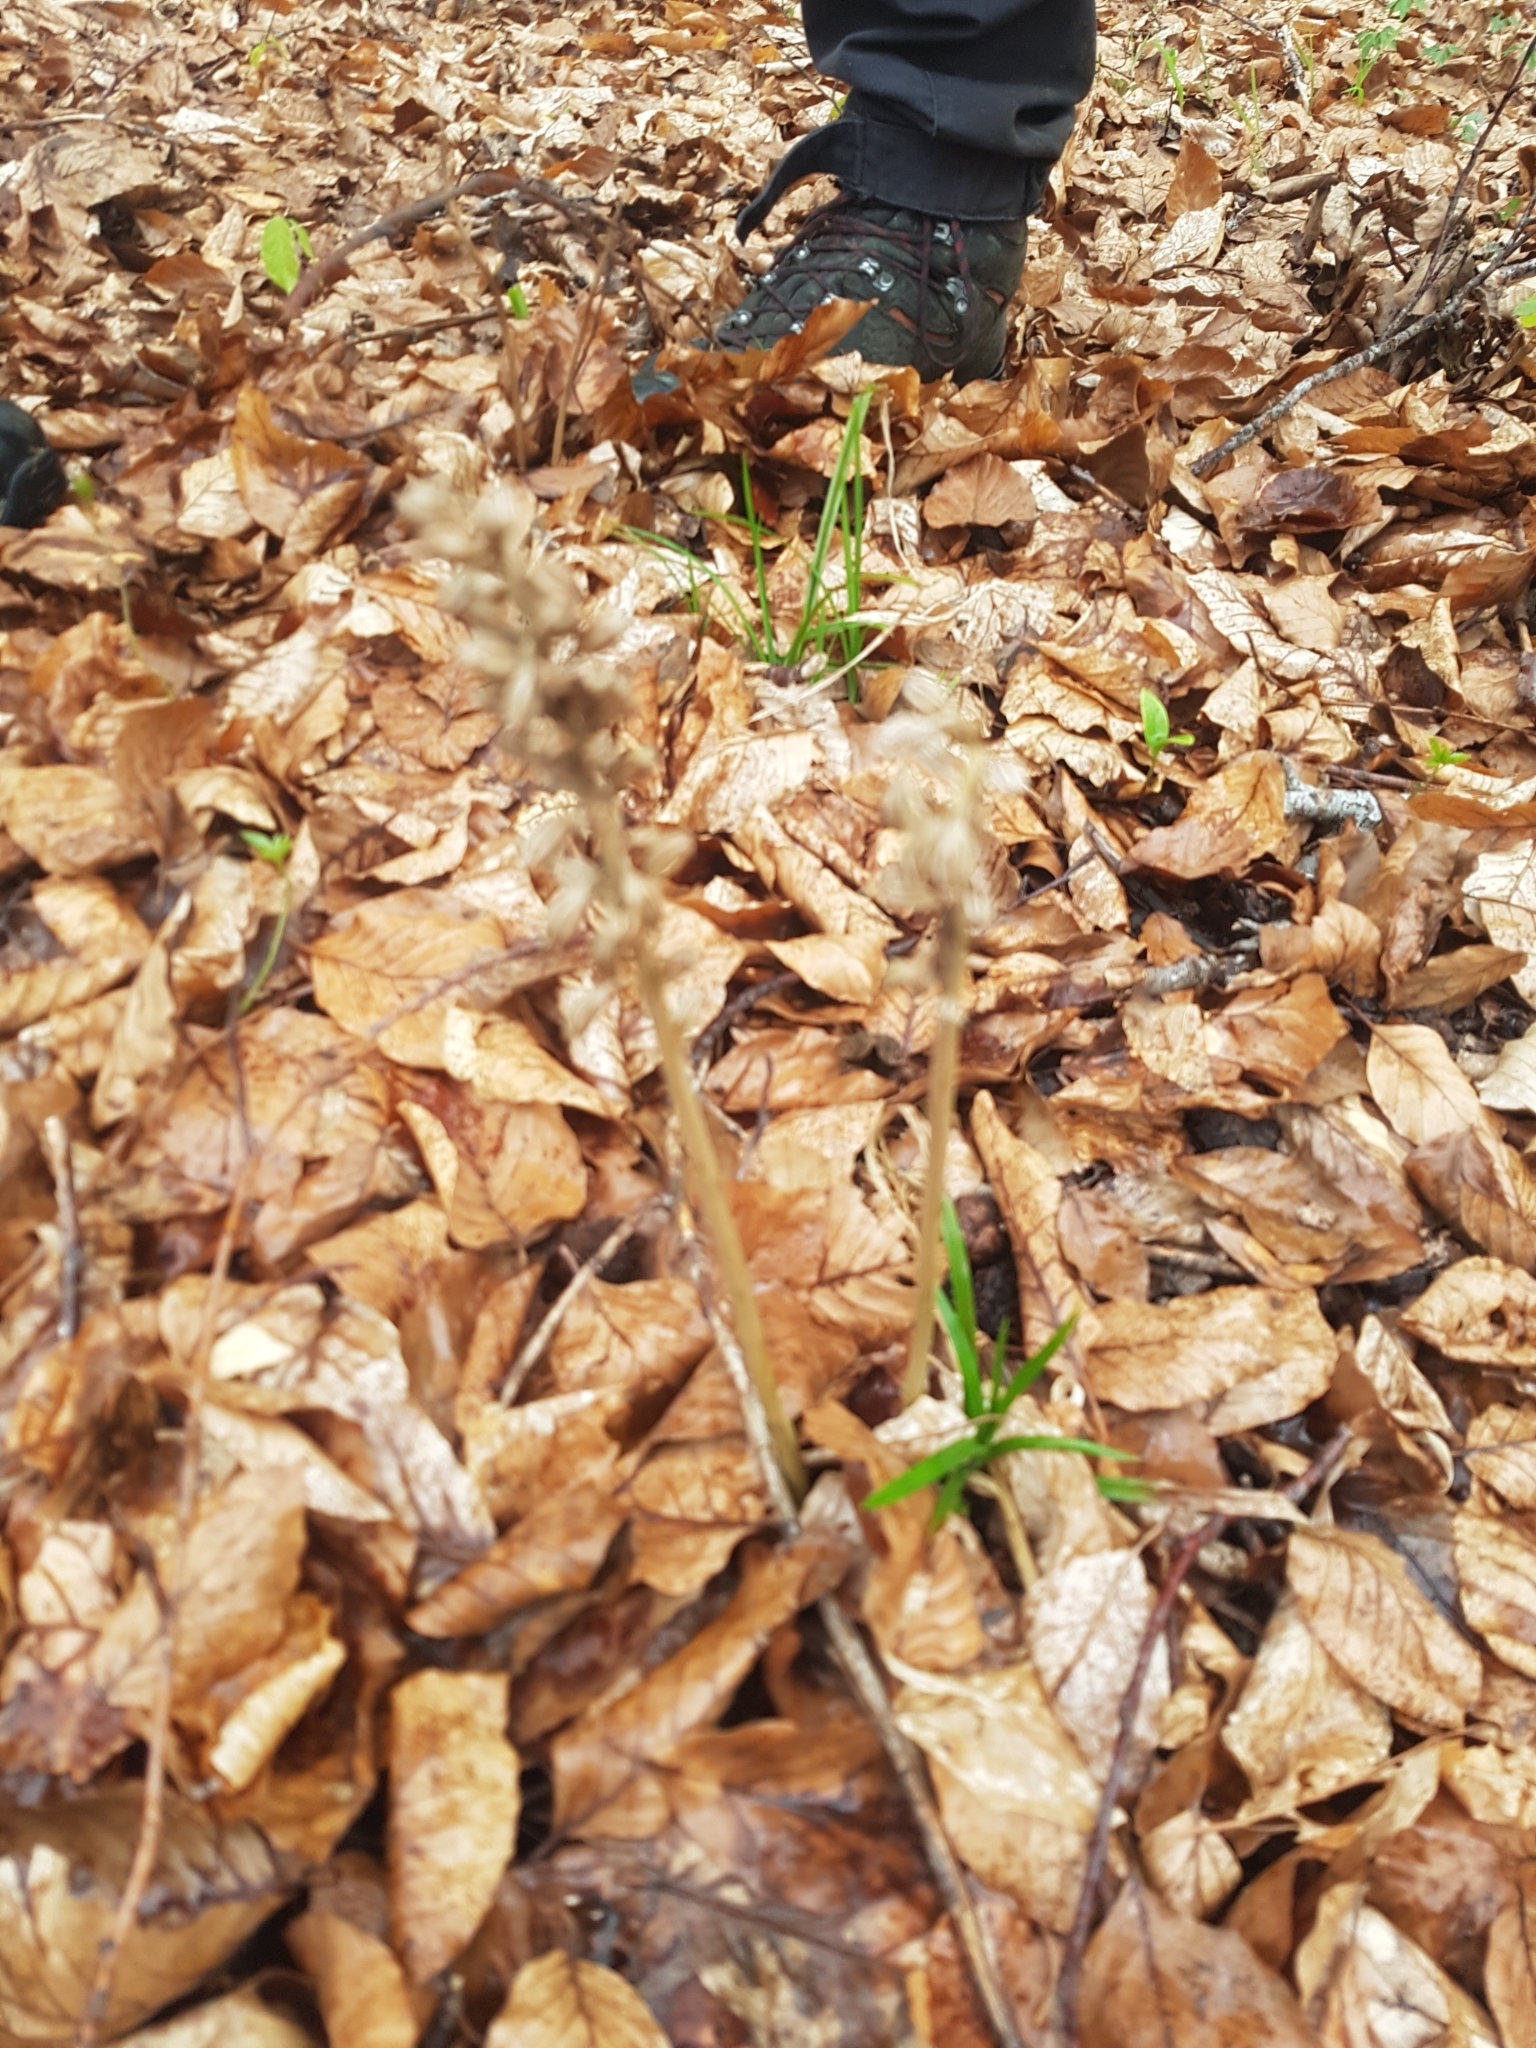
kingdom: Plantae
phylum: Tracheophyta
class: Liliopsida
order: Asparagales
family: Orchidaceae
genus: Neottia
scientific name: Neottia nidus-avis
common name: Bird's-nest orchid
